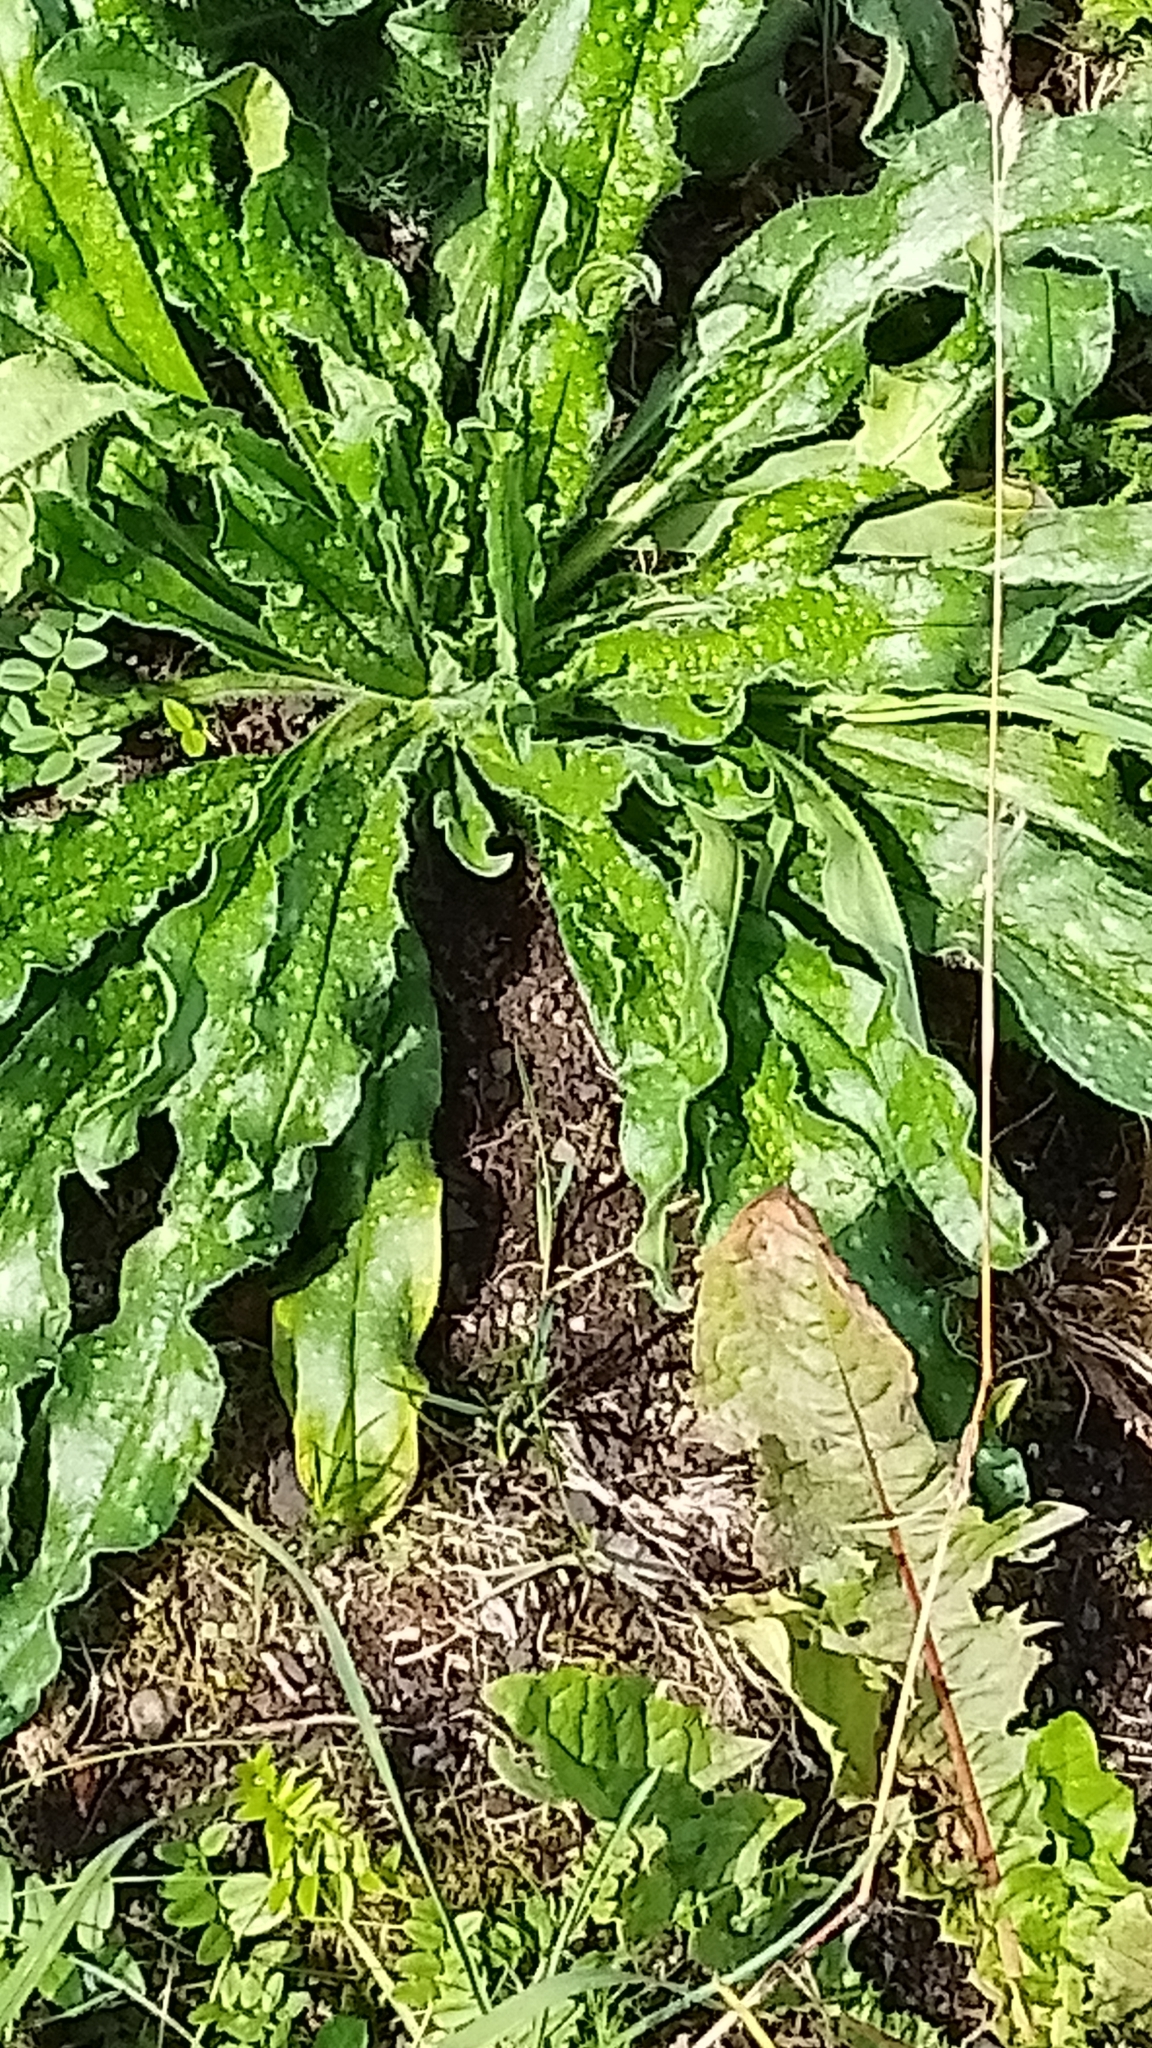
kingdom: Plantae
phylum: Tracheophyta
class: Magnoliopsida
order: Boraginales
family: Boraginaceae
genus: Echium
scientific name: Echium vulgare
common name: Common viper's bugloss
